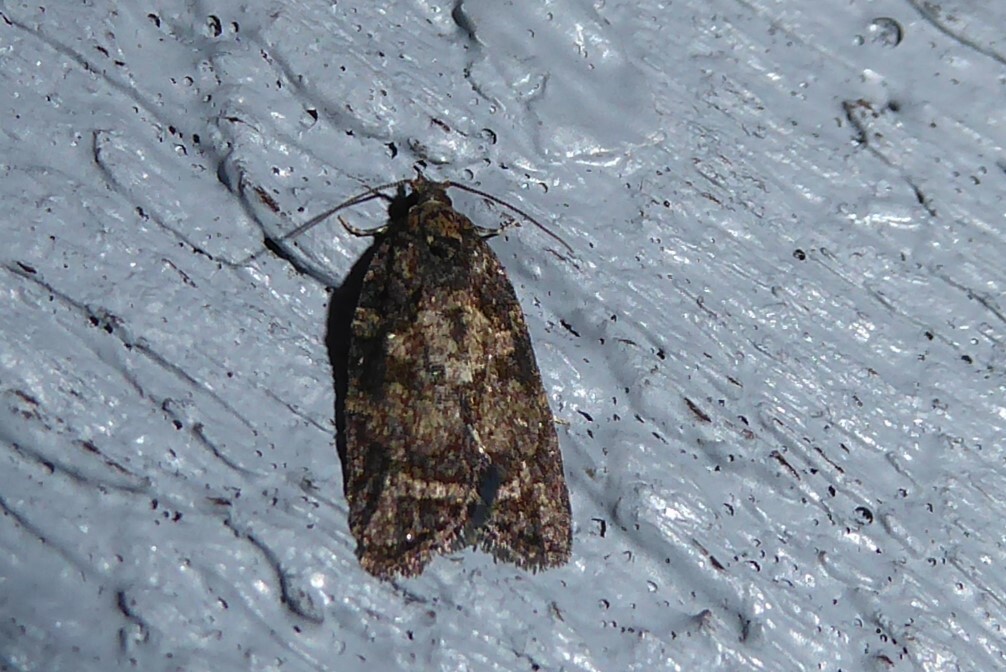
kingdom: Animalia
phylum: Arthropoda
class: Insecta
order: Lepidoptera
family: Tortricidae
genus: Capua
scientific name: Capua intractana
